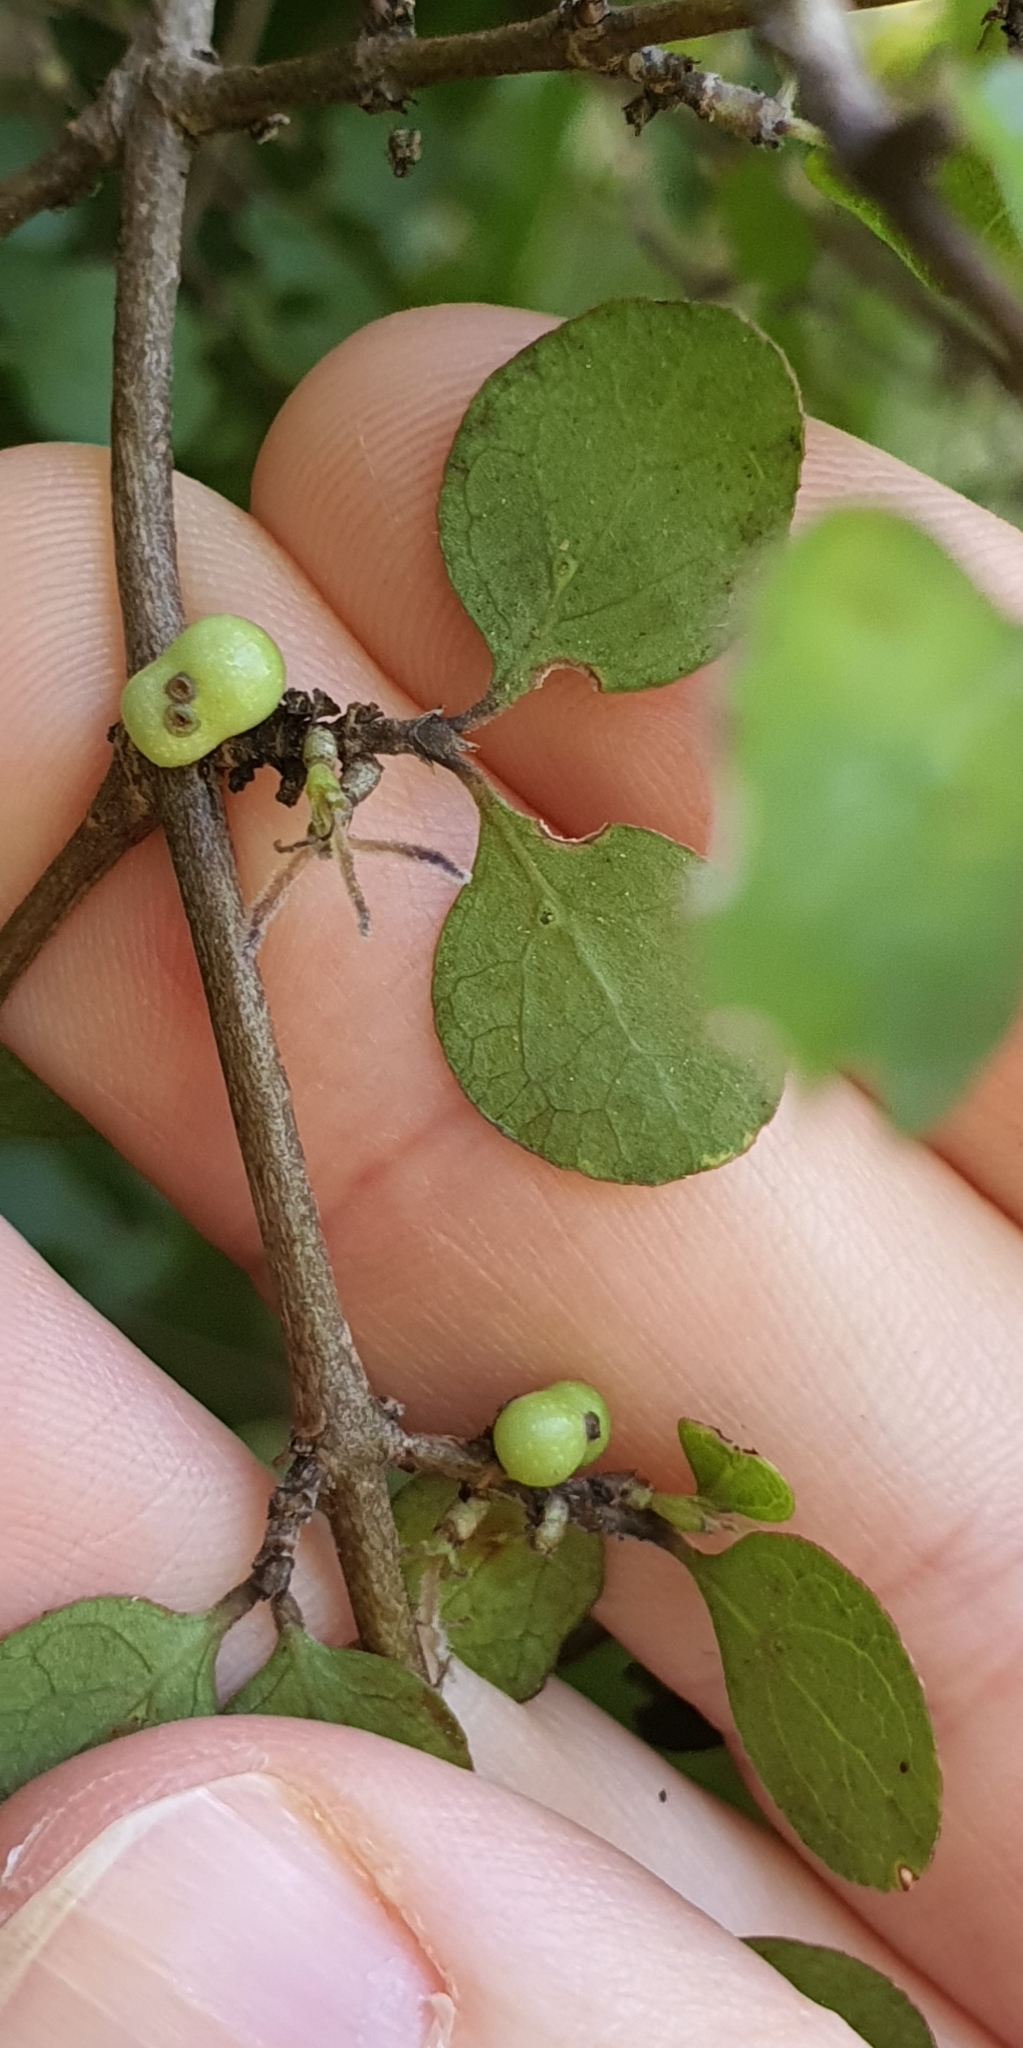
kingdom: Plantae
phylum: Tracheophyta
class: Magnoliopsida
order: Gentianales
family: Rubiaceae
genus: Coprosma
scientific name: Coprosma wallii
